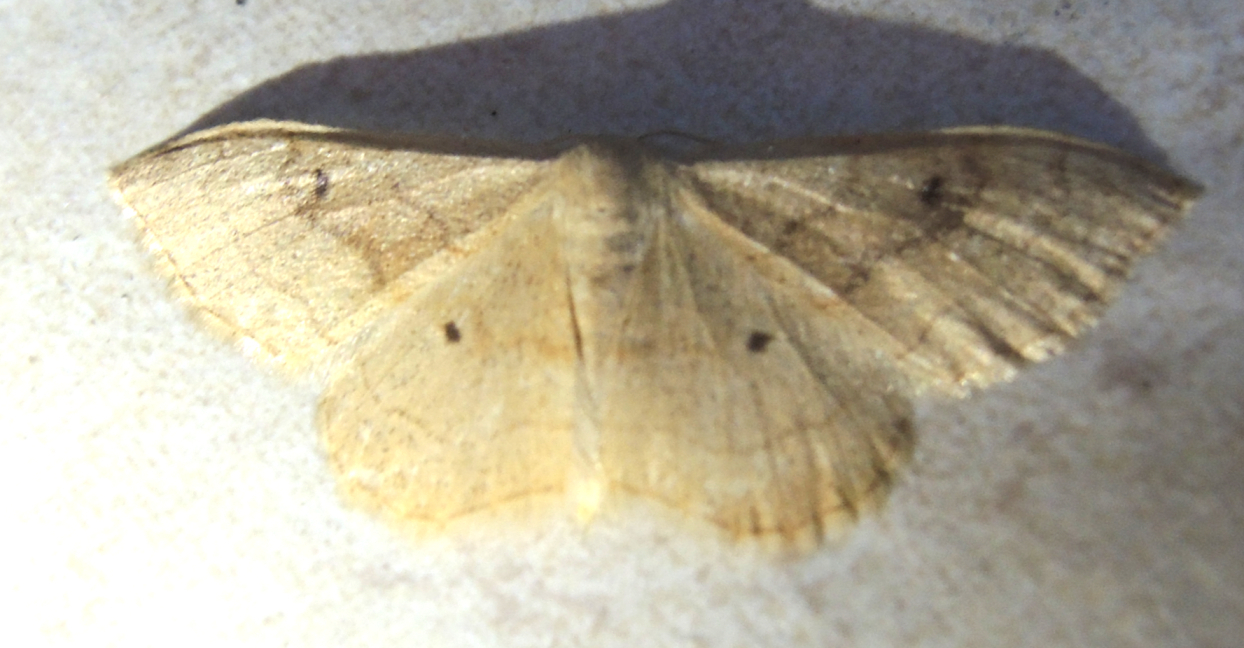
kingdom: Animalia
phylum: Arthropoda
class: Insecta
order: Lepidoptera
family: Geometridae
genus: Idaea
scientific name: Idaea bilinearia
